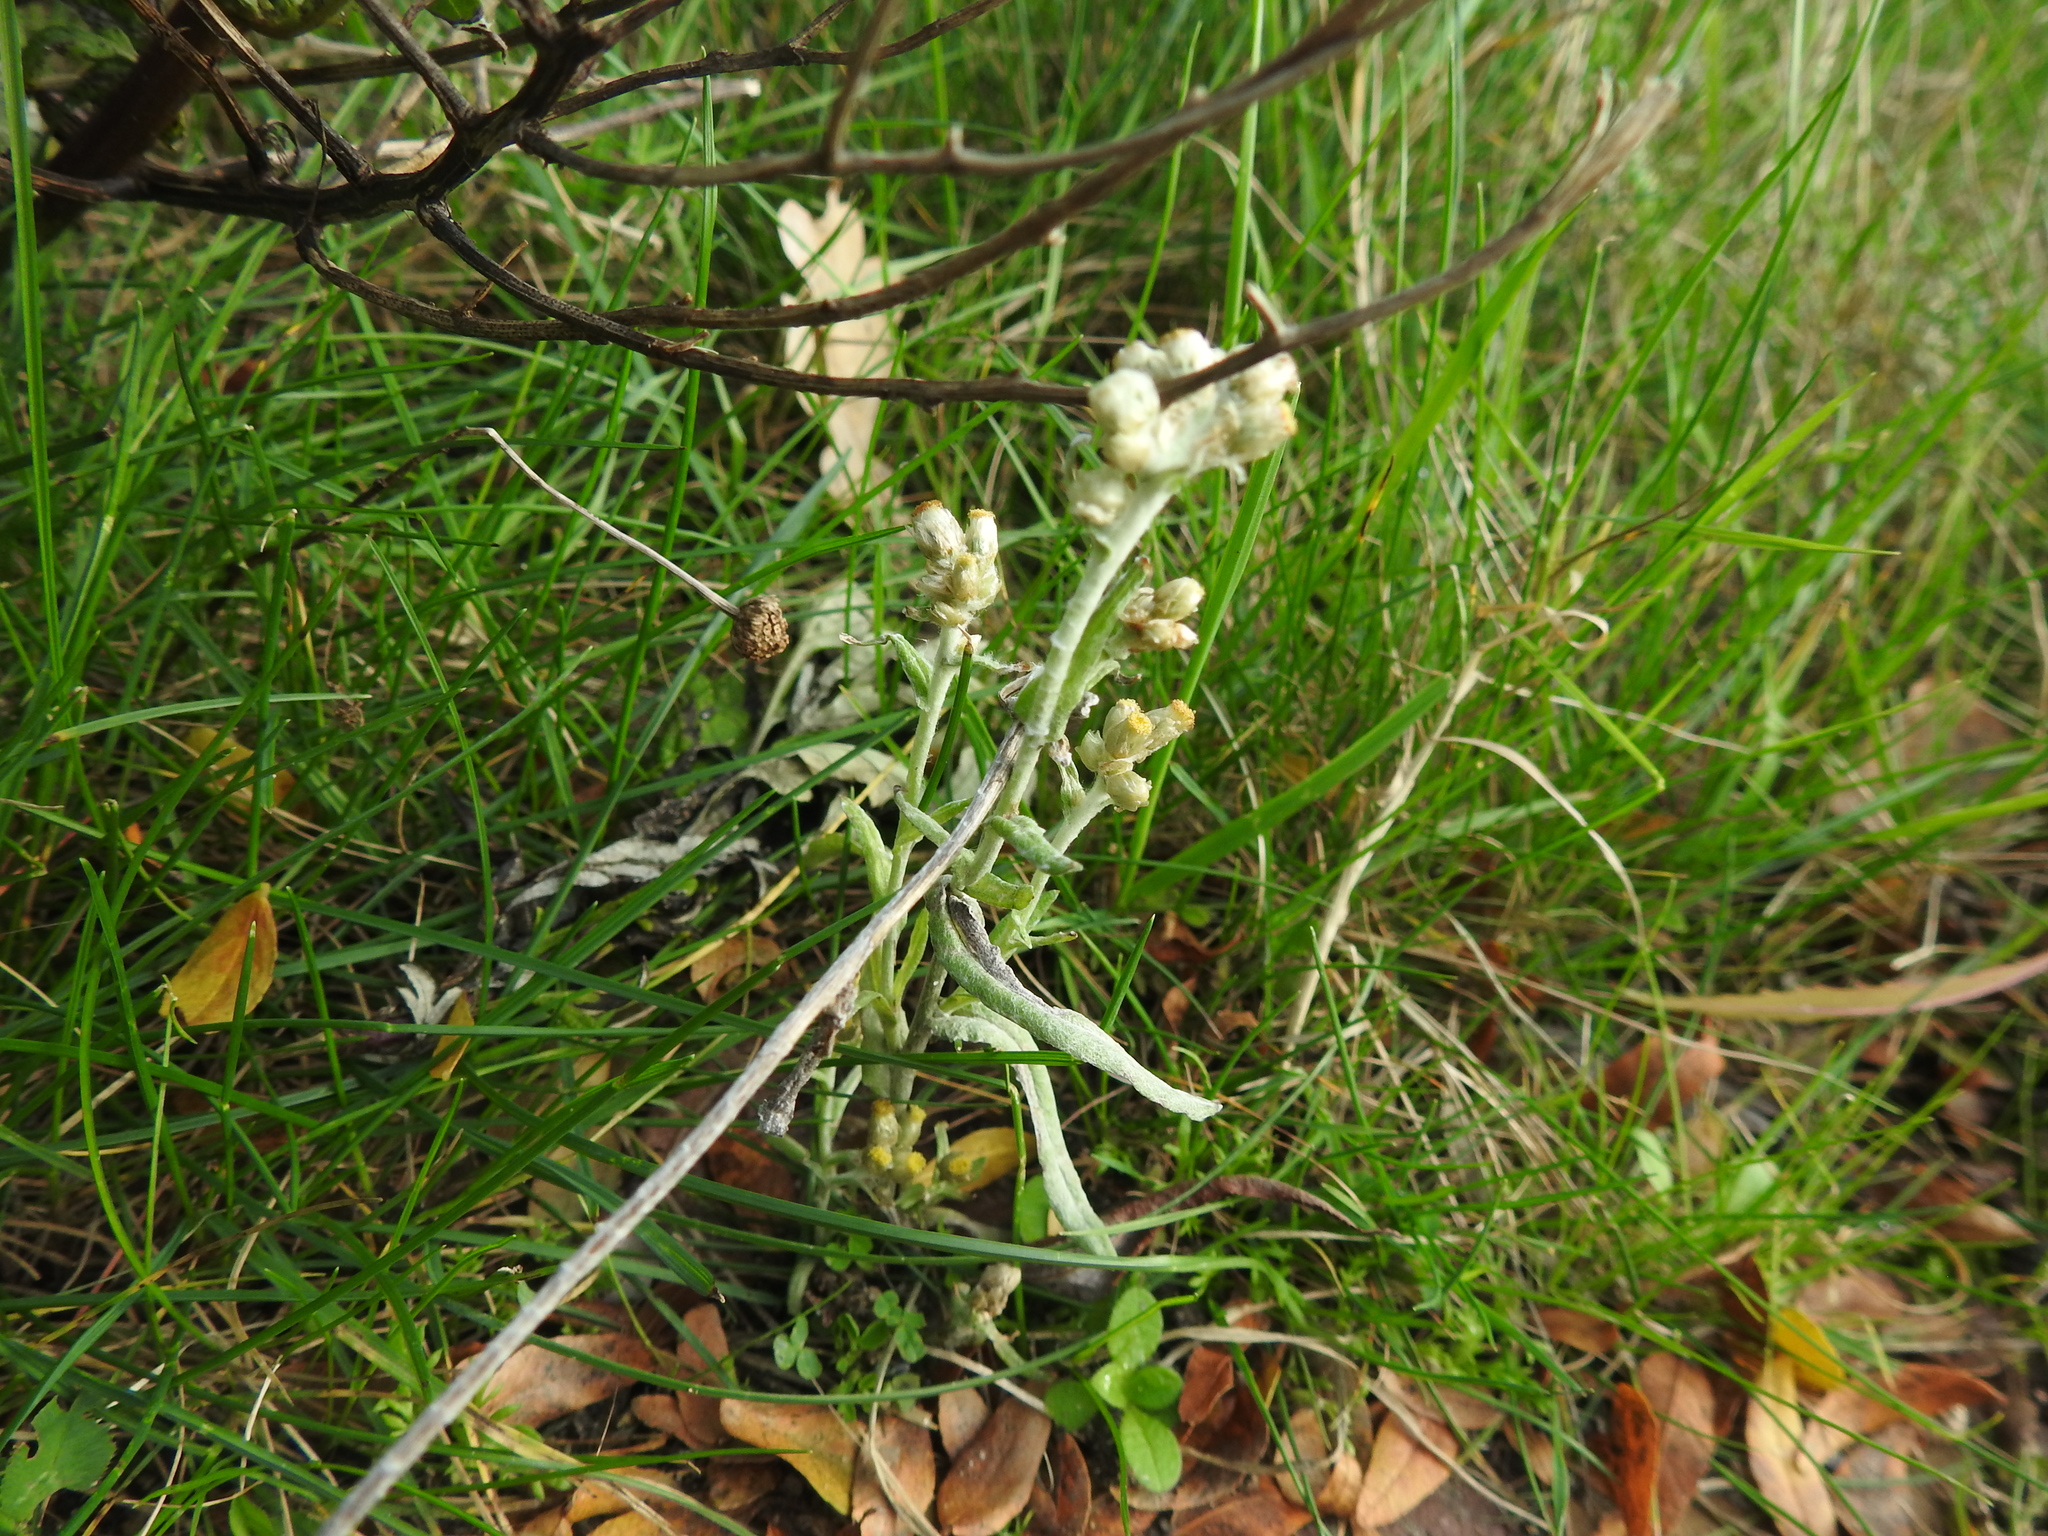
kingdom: Plantae
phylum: Tracheophyta
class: Magnoliopsida
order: Asterales
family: Asteraceae
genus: Helichrysum
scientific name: Helichrysum luteoalbum
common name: Daisy
